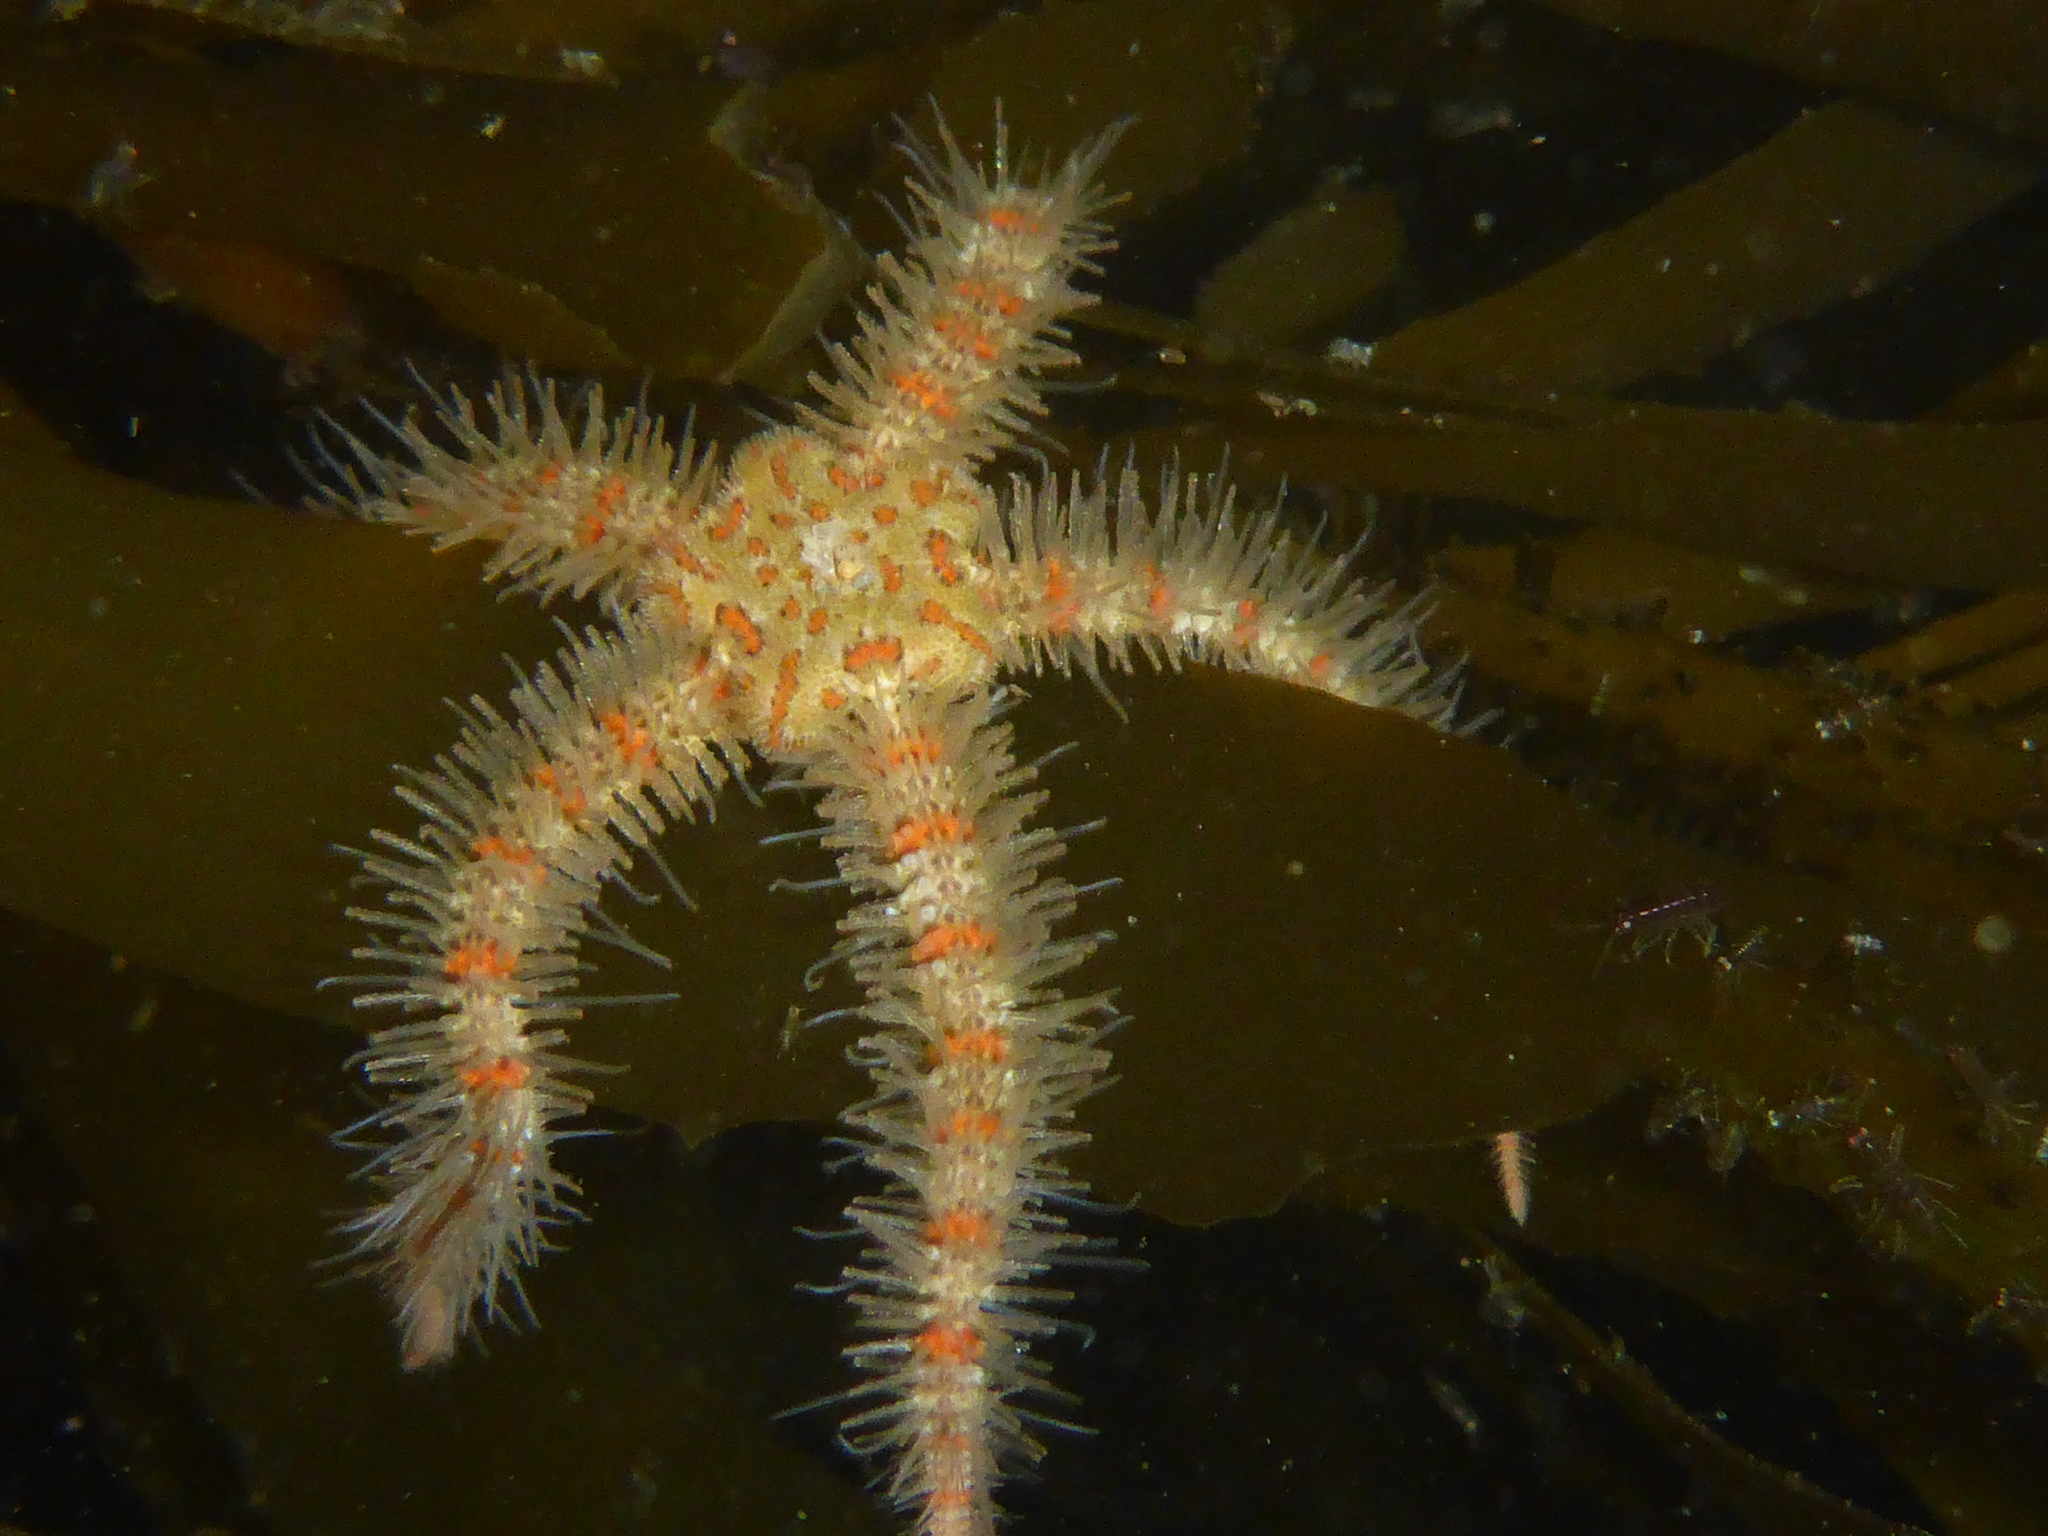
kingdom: Animalia
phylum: Echinodermata
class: Ophiuroidea
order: Amphilepidida
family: Ophiotrichidae
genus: Ophiothrix
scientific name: Ophiothrix spiculata
